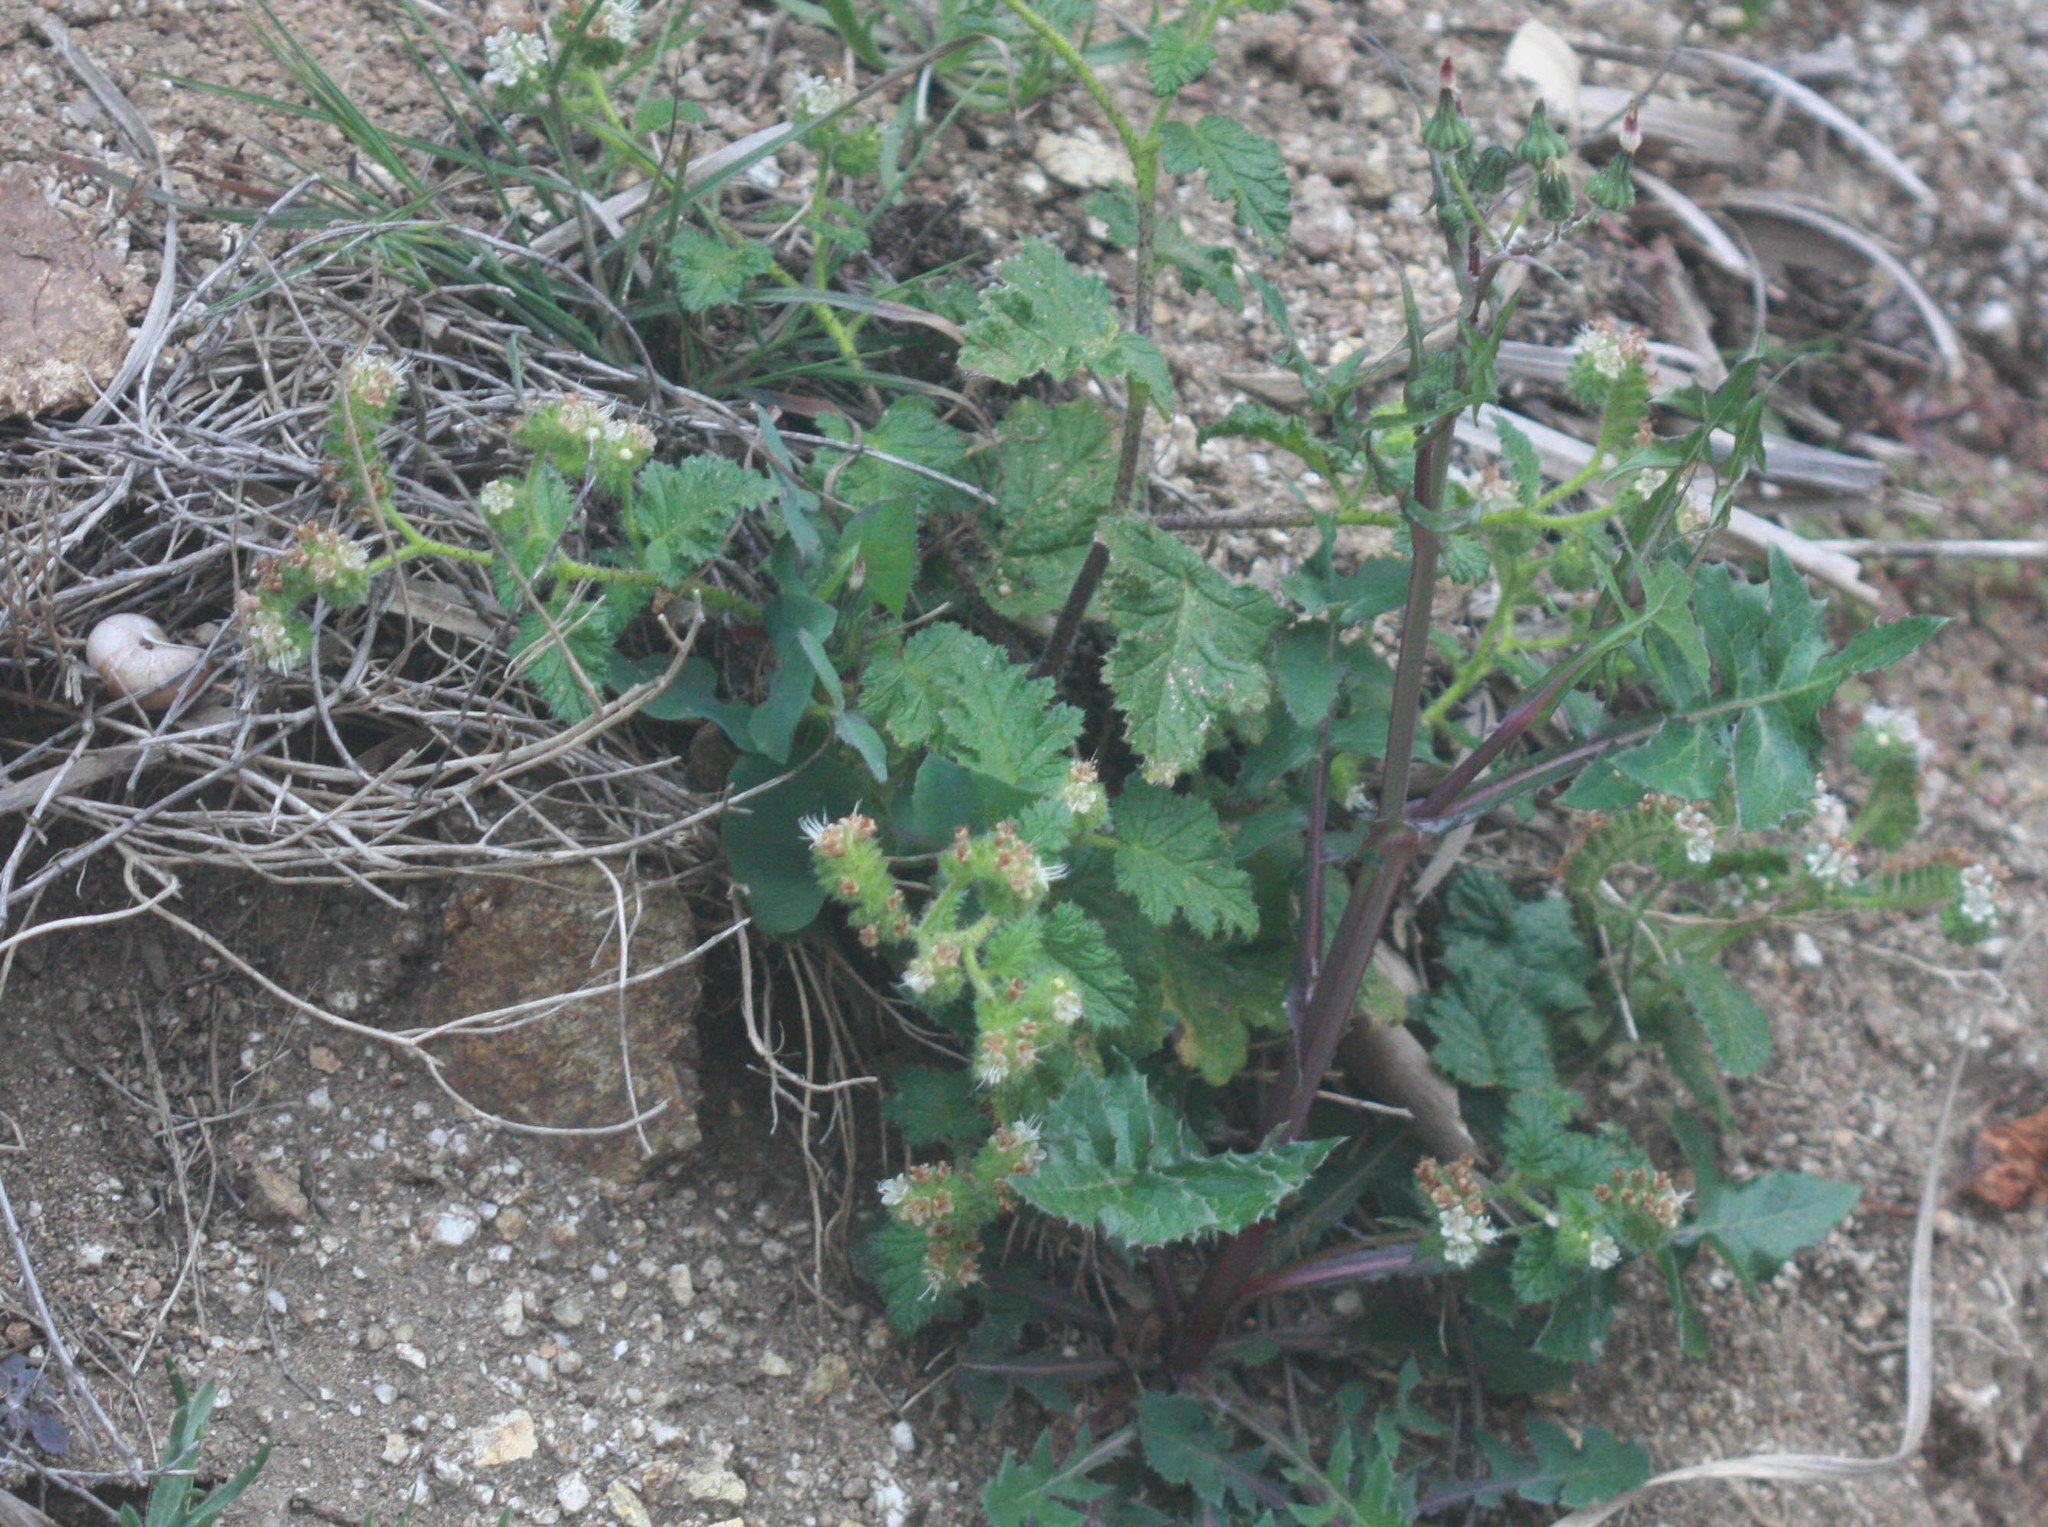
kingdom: Plantae
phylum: Tracheophyta
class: Magnoliopsida
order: Boraginales
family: Hydrophyllaceae
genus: Phacelia
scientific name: Phacelia malvifolia
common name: Mallow-leaf phacelia
